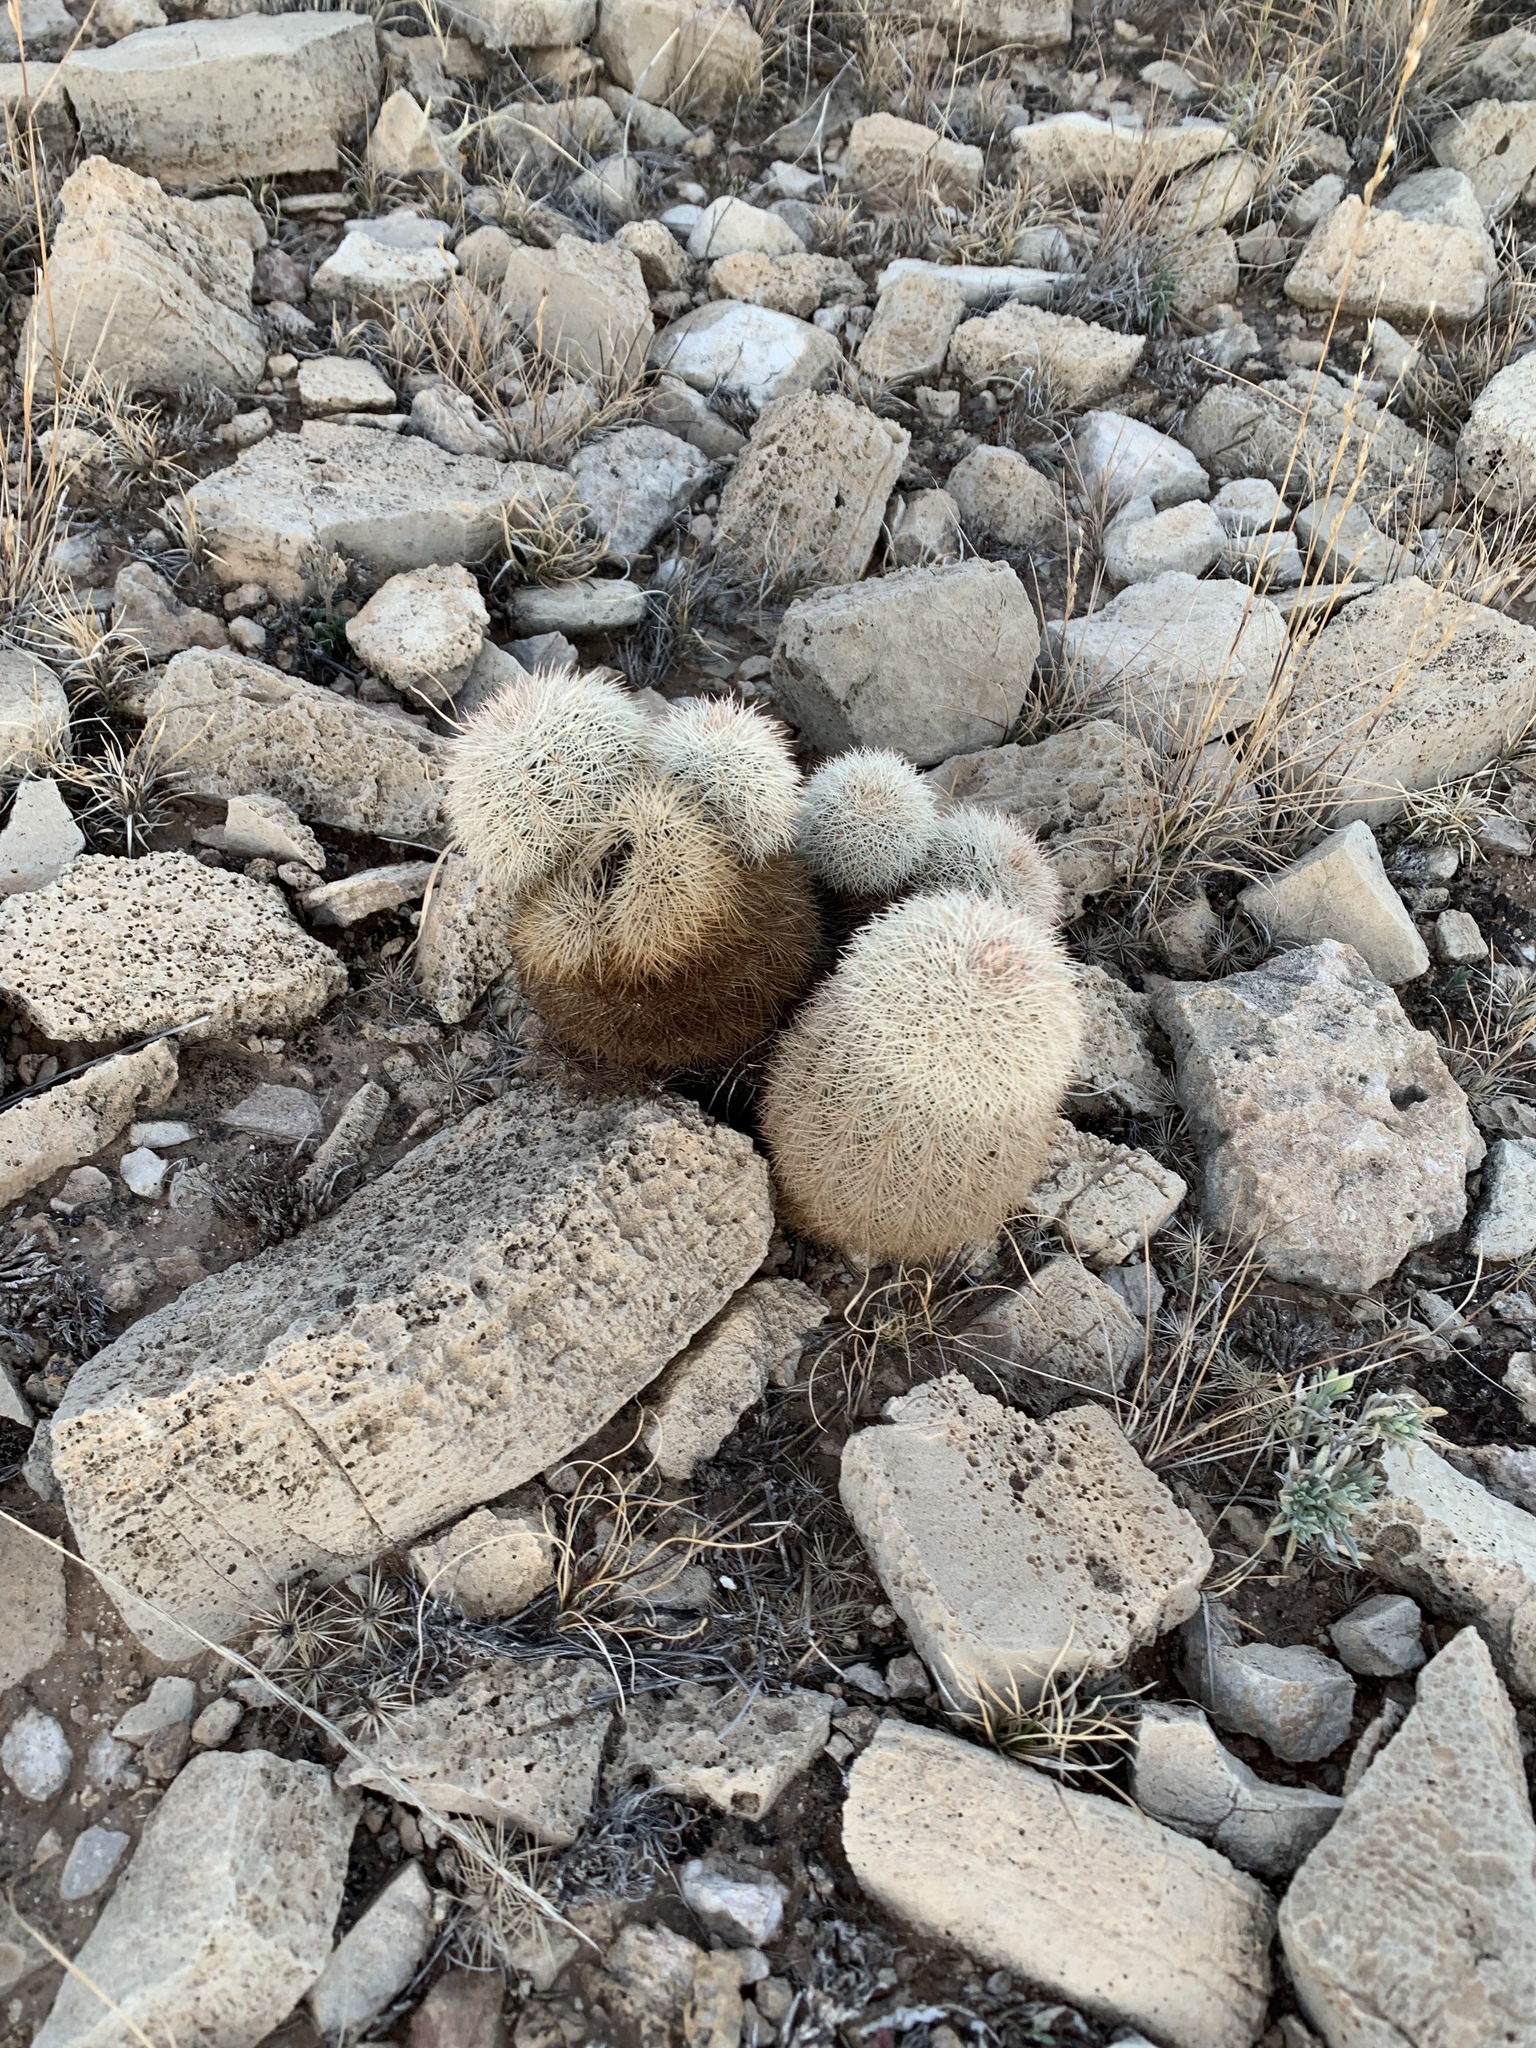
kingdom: Plantae
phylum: Tracheophyta
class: Magnoliopsida
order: Caryophyllales
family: Cactaceae
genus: Echinocereus
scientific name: Echinocereus dasyacanthus
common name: Spiny hedgehog cactus
